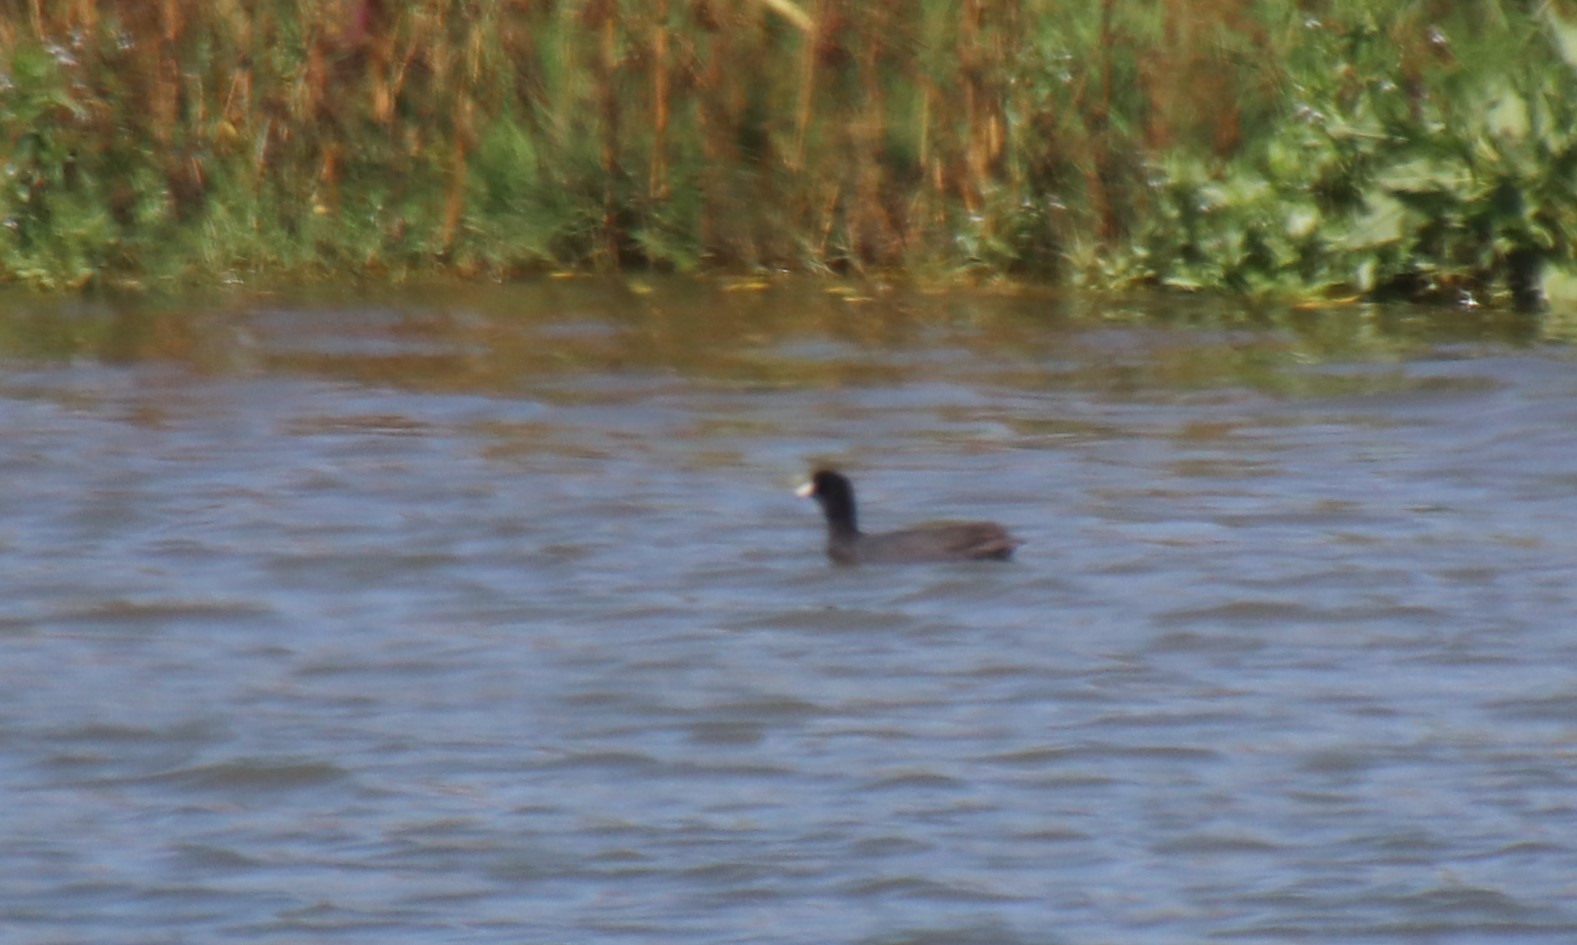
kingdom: Animalia
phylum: Chordata
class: Aves
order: Gruiformes
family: Rallidae
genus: Fulica
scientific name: Fulica americana
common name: American coot
